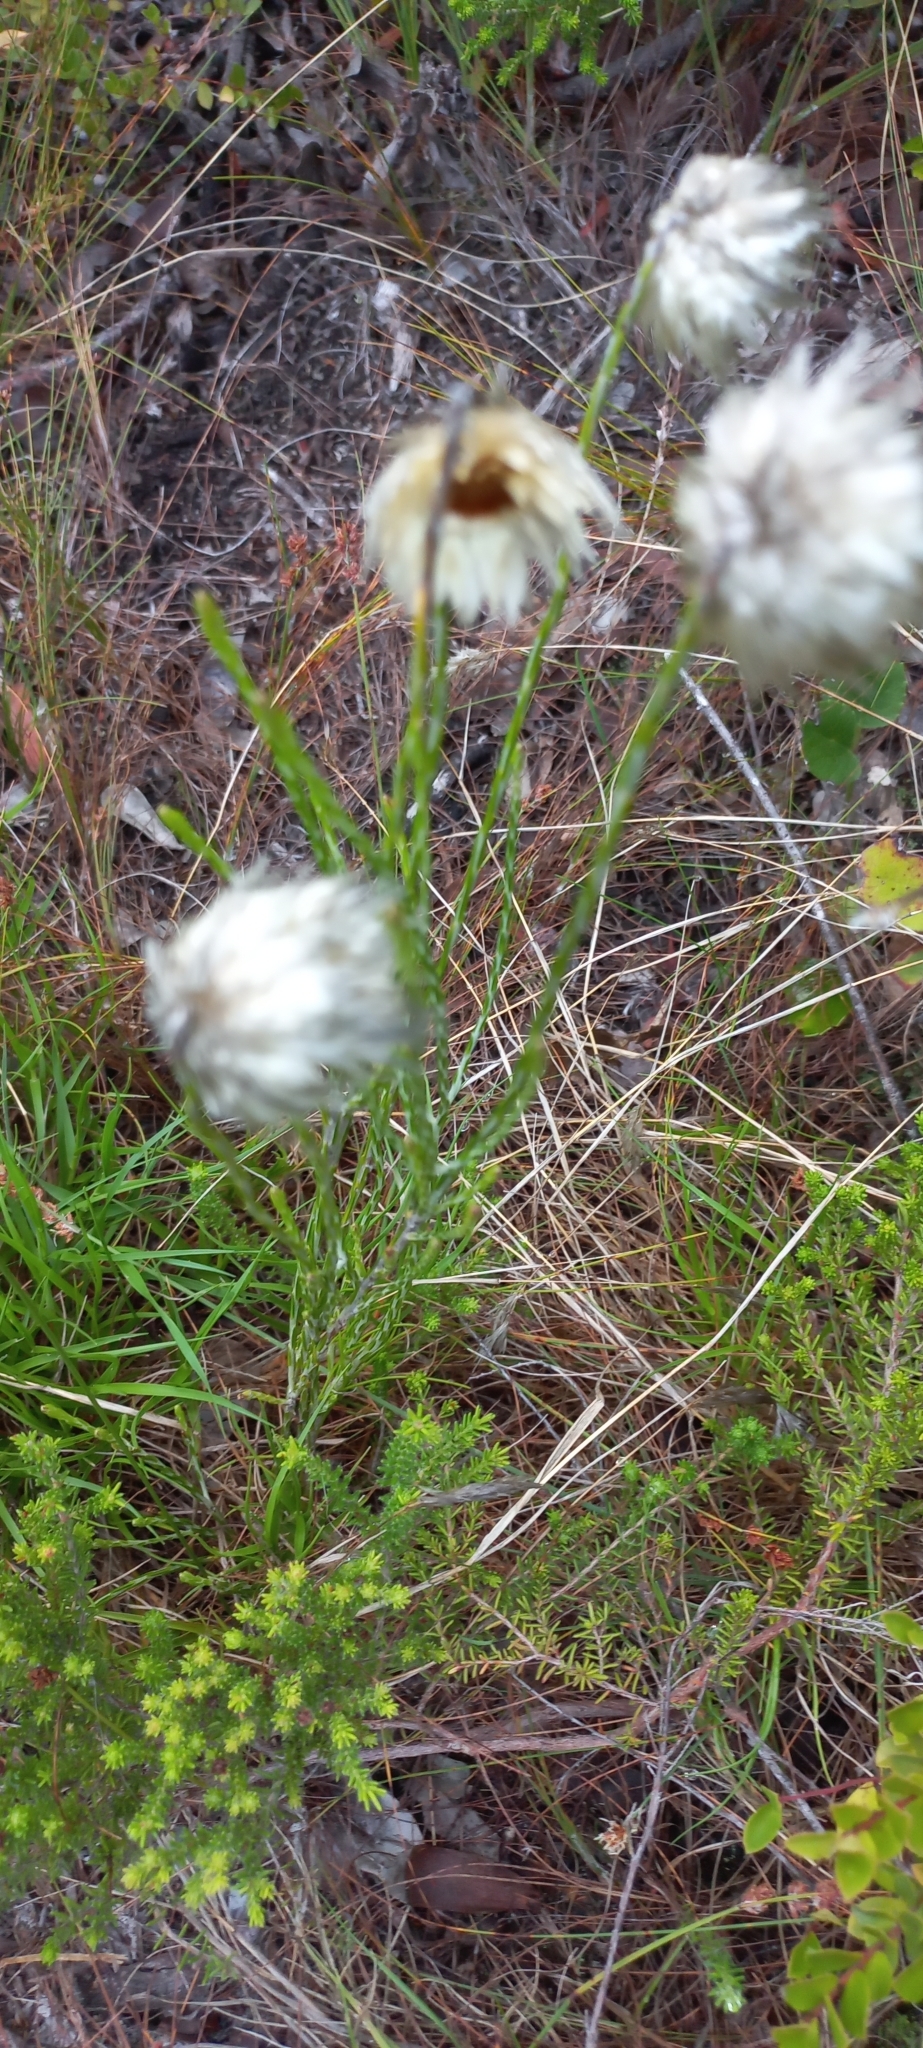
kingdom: Plantae
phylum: Tracheophyta
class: Magnoliopsida
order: Asterales
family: Asteraceae
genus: Edmondia
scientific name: Edmondia sesamoides
